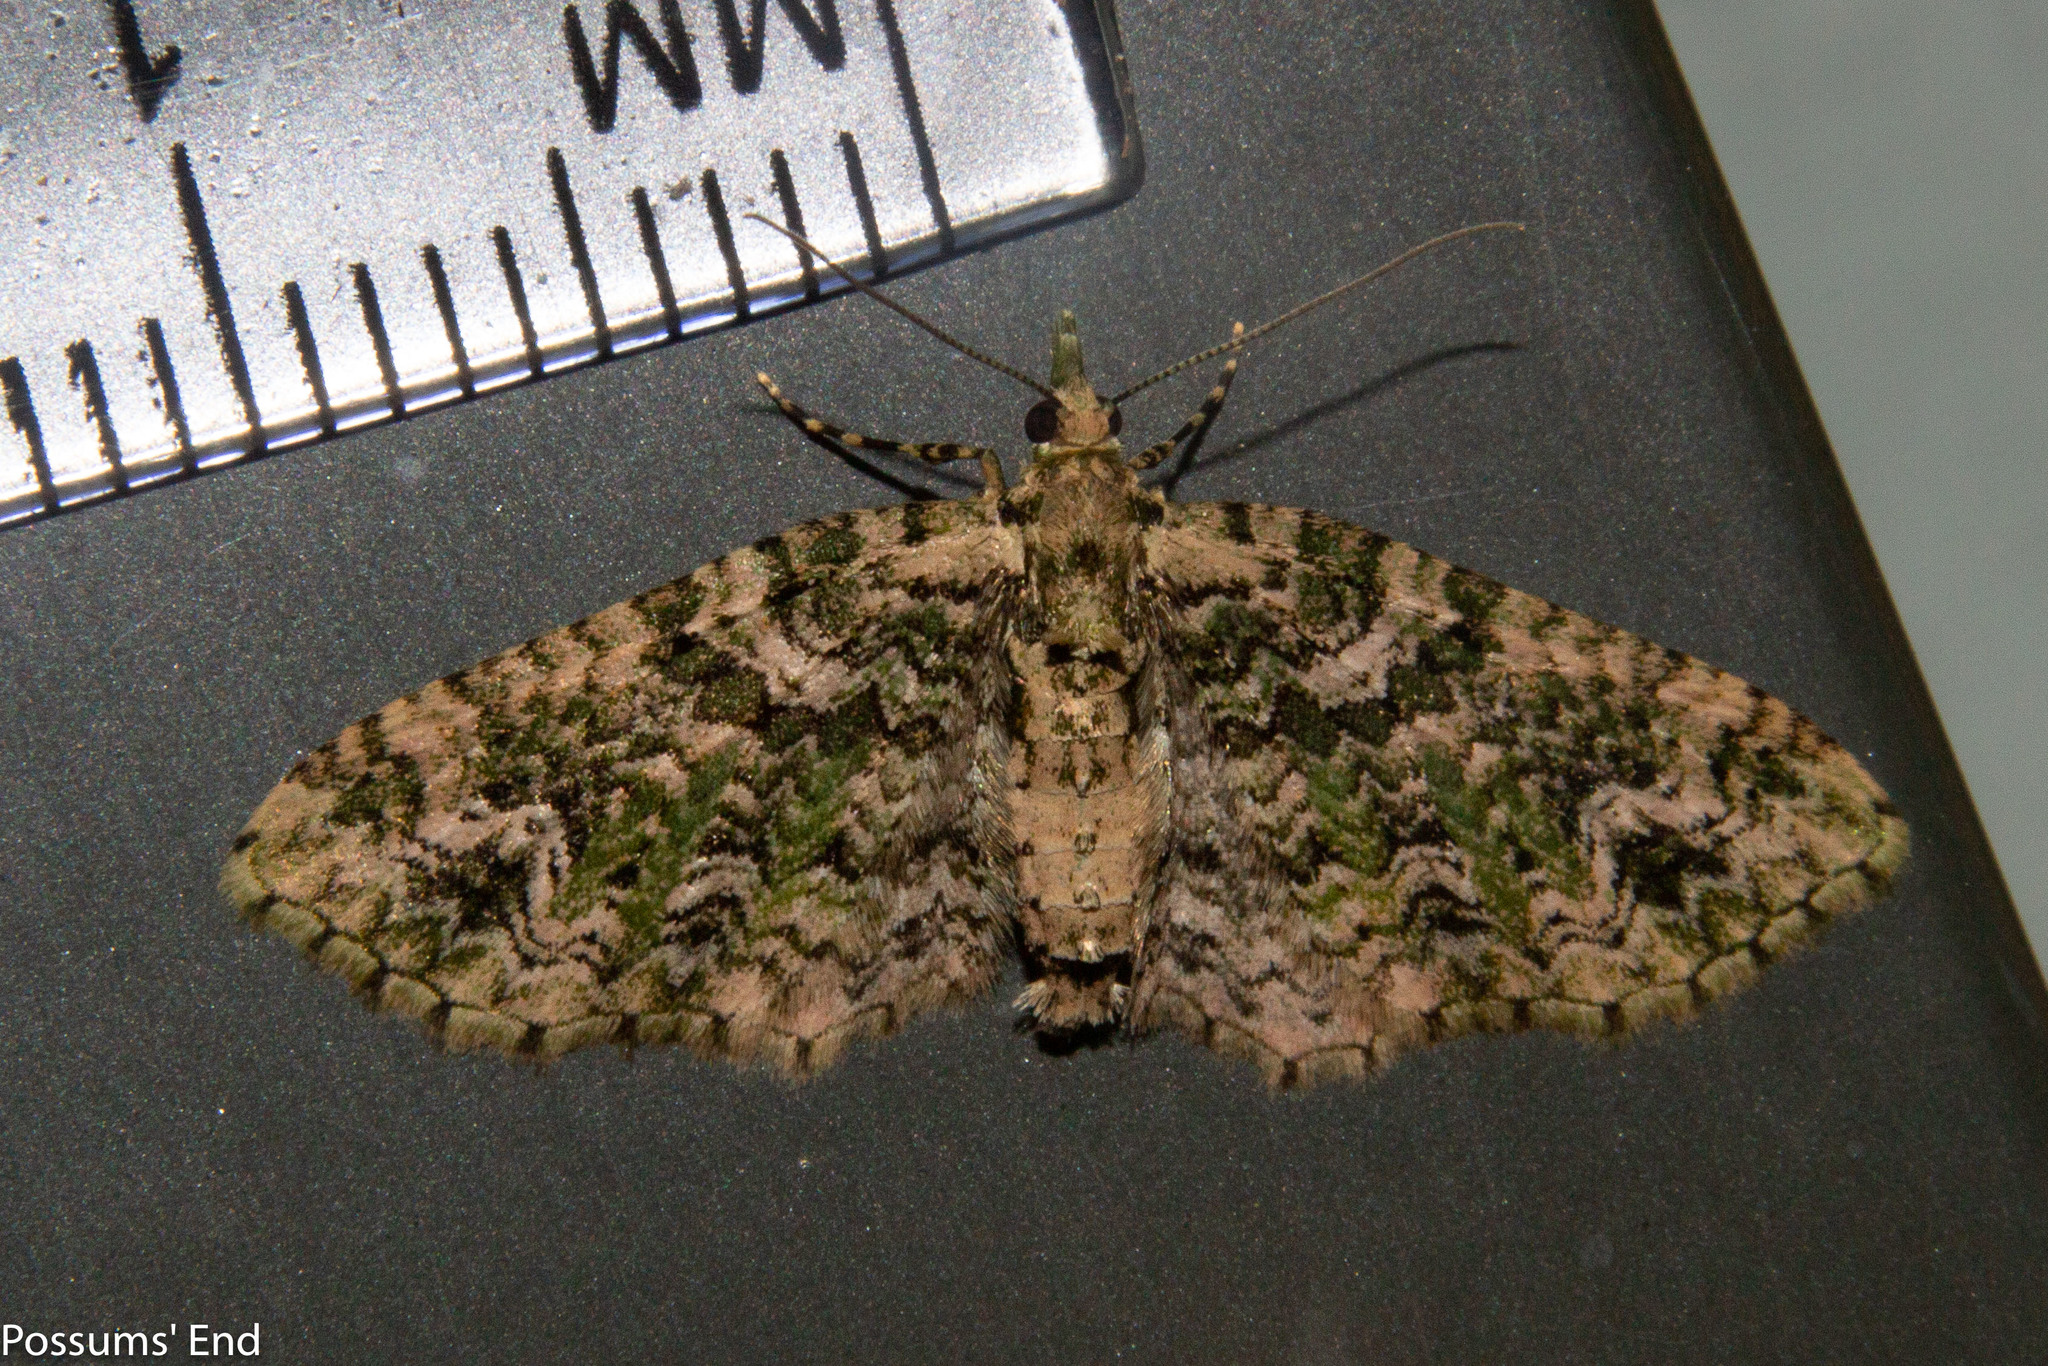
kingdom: Animalia
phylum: Arthropoda
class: Insecta
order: Lepidoptera
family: Geometridae
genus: Pasiphila
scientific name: Pasiphila muscosata
